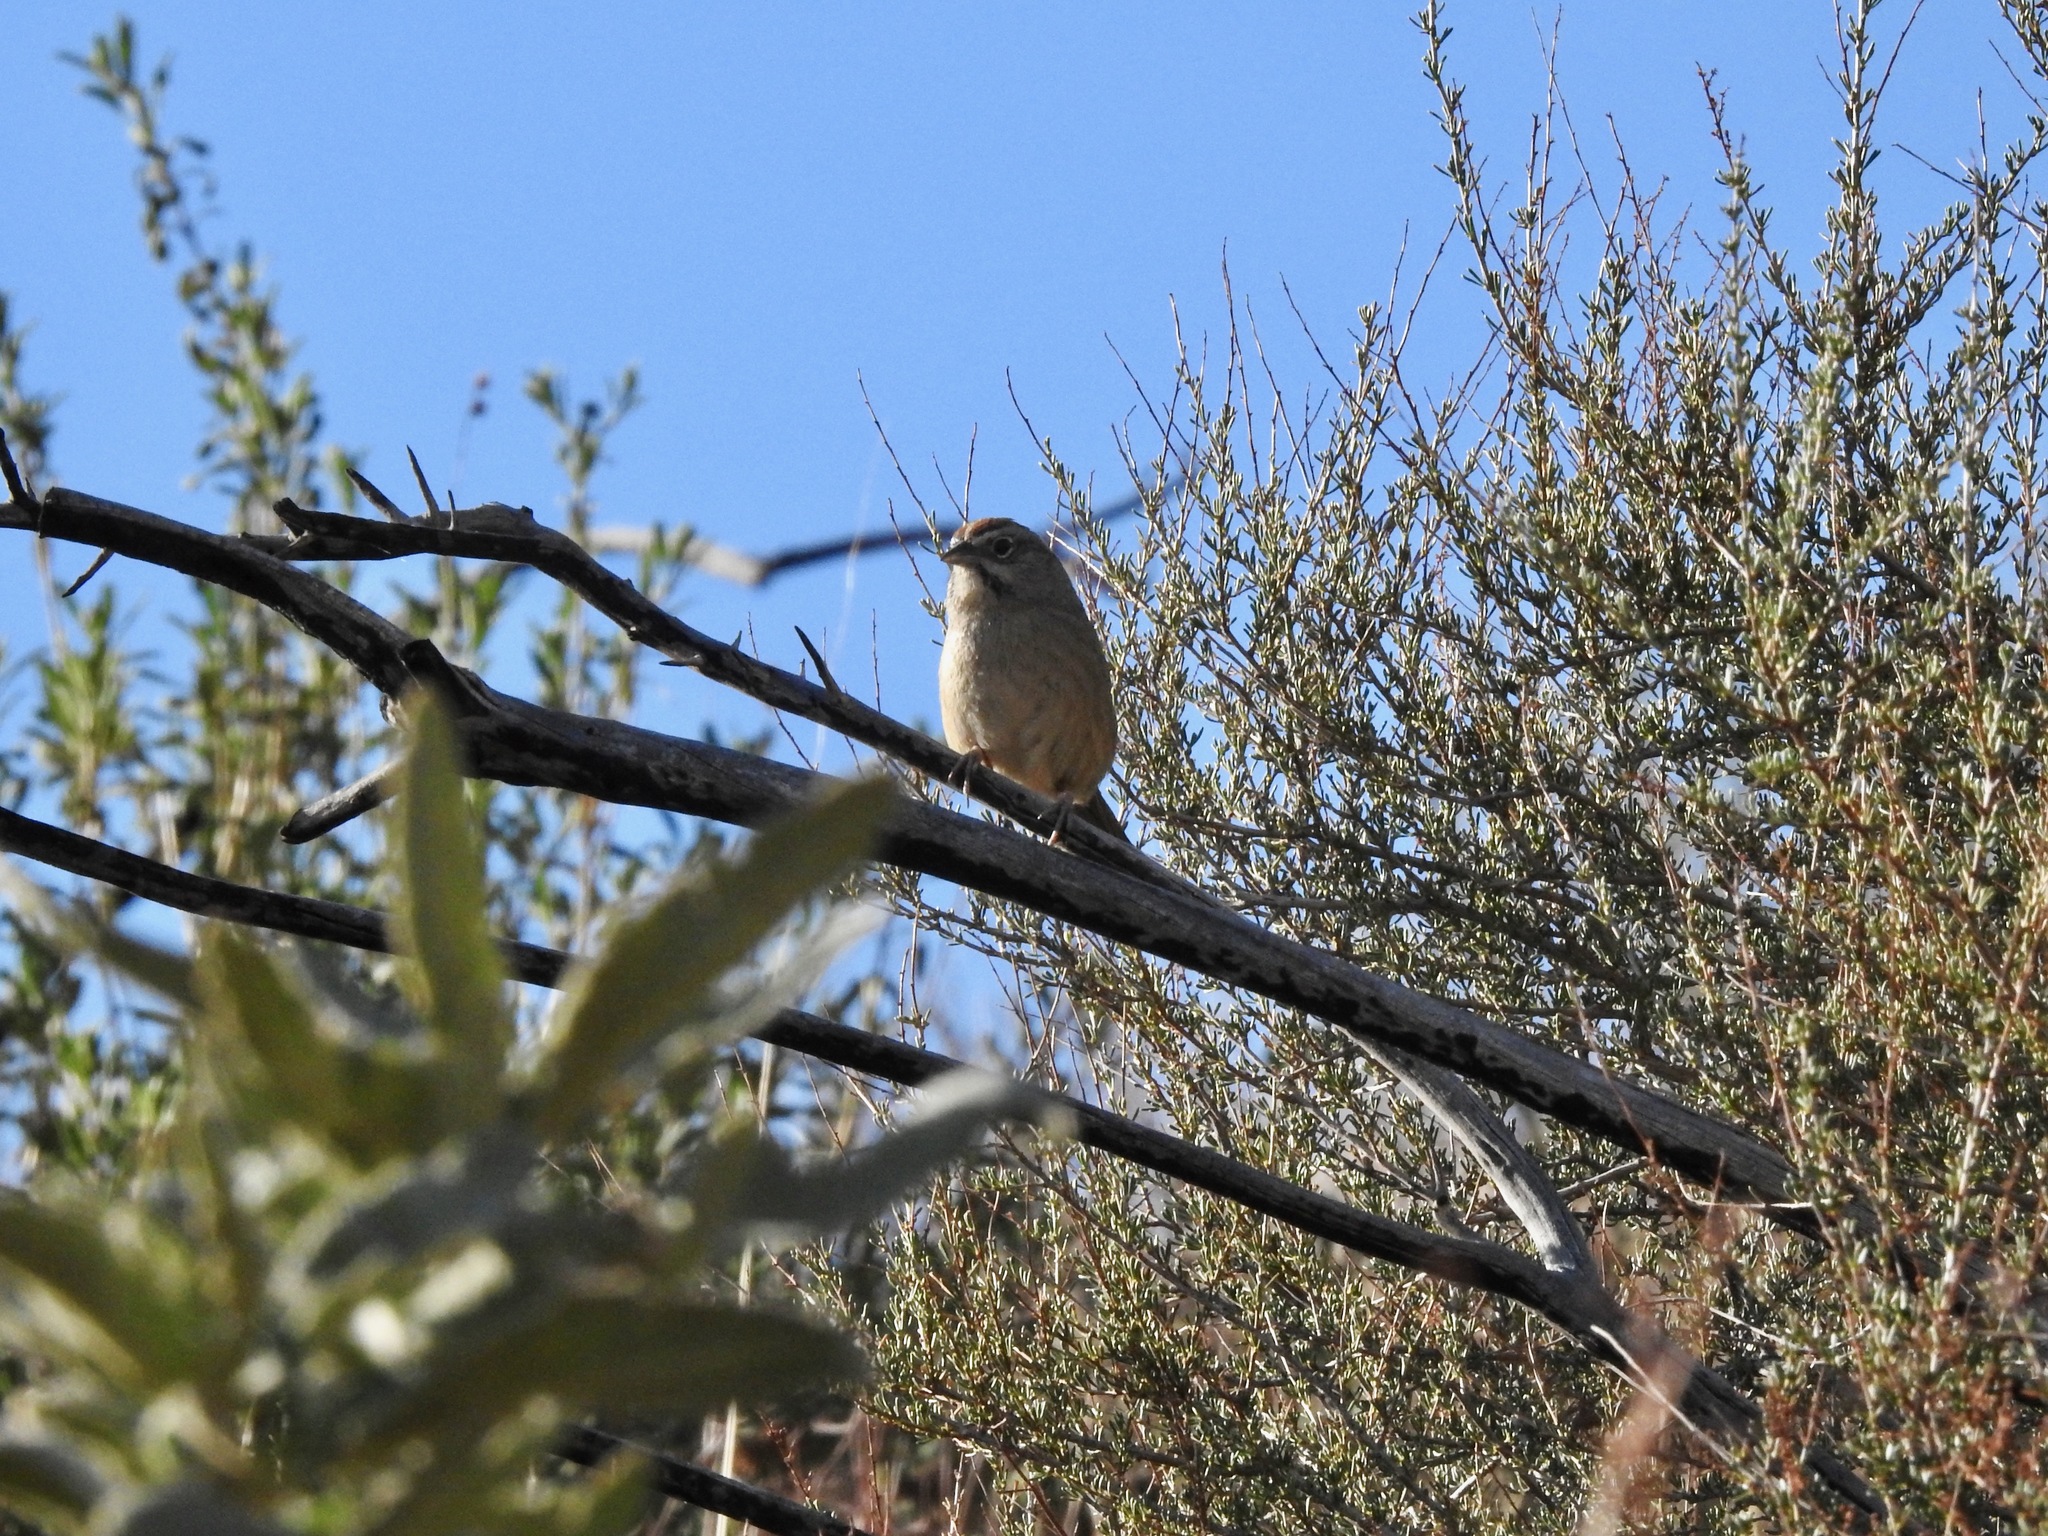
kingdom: Animalia
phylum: Chordata
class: Aves
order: Passeriformes
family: Passerellidae
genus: Aimophila
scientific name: Aimophila ruficeps
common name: Rufous-crowned sparrow
